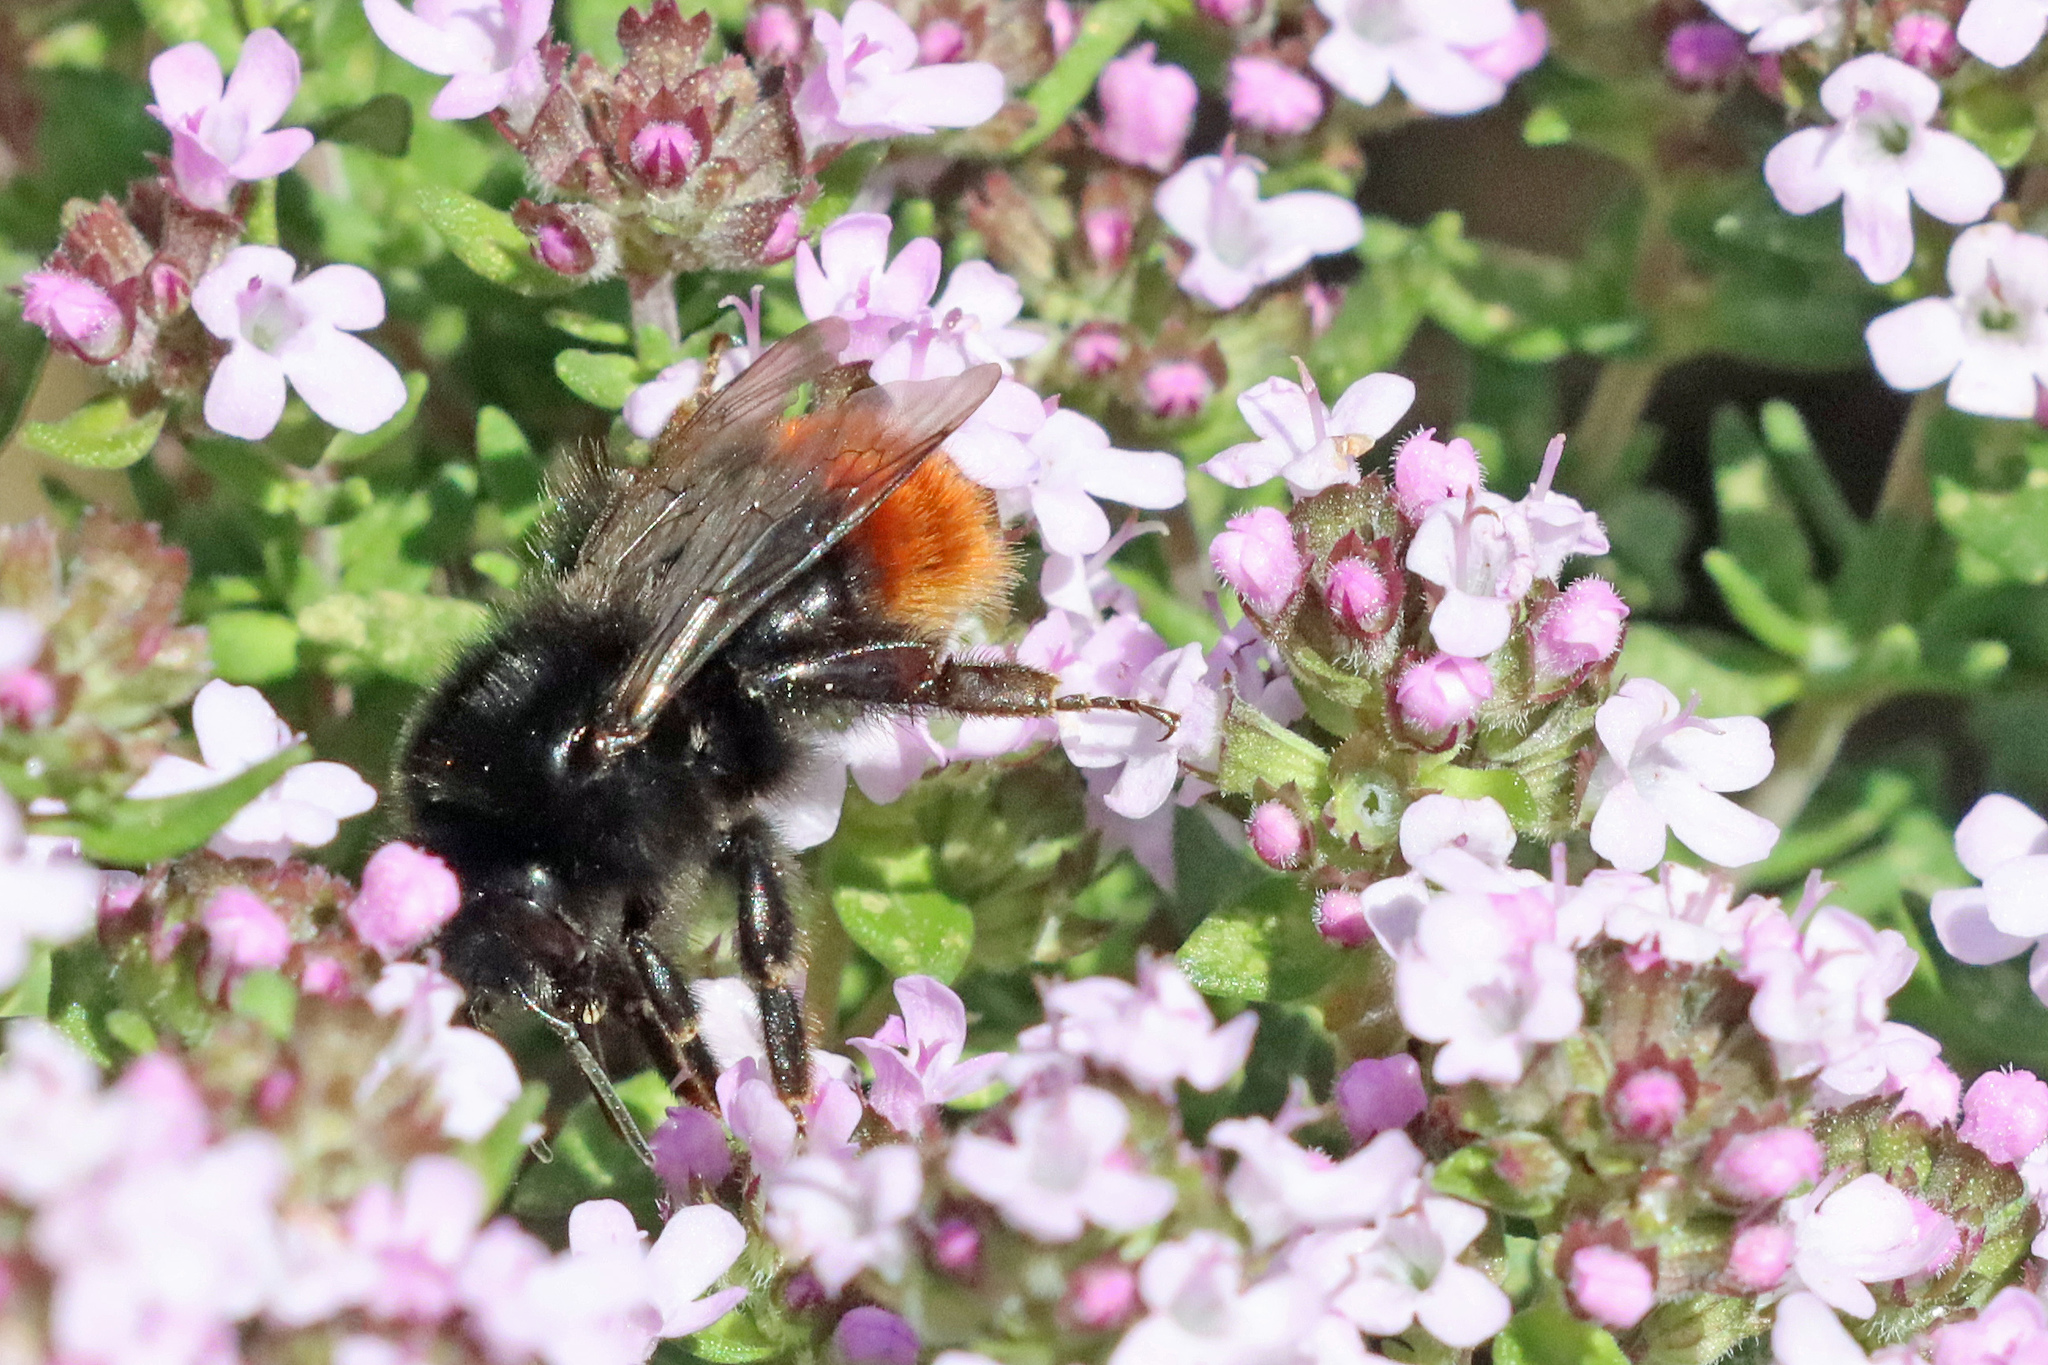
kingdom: Animalia
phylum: Arthropoda
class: Insecta
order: Hymenoptera
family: Apidae
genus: Bombus
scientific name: Bombus lapidarius
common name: Large red-tailed humble-bee
